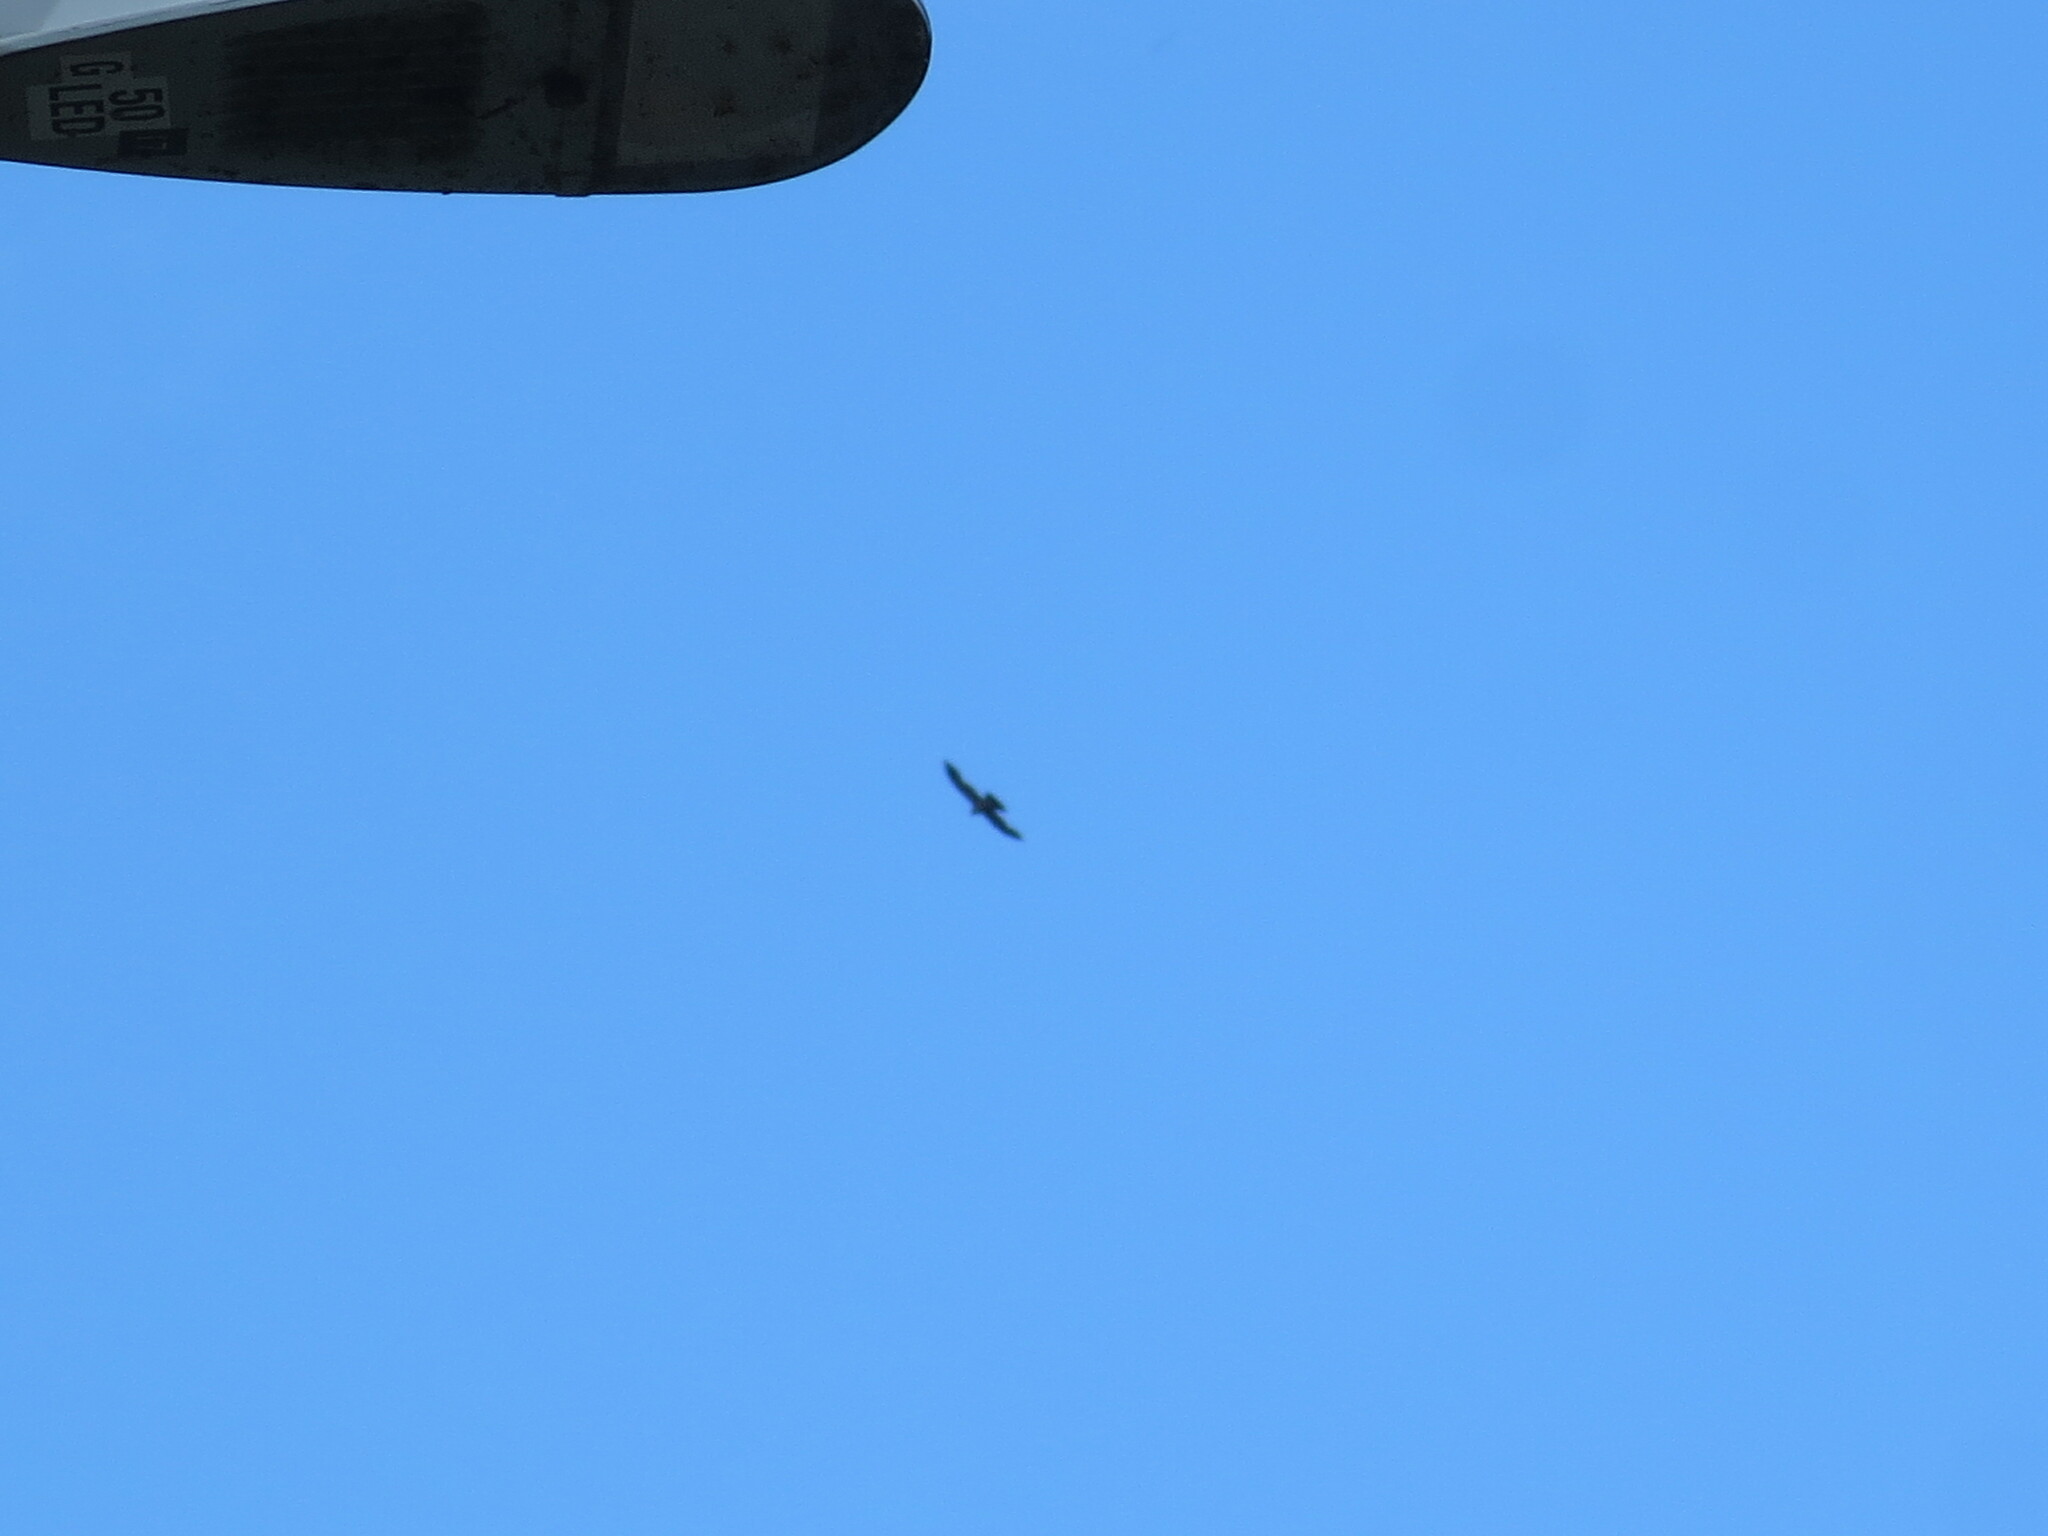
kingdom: Animalia
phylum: Chordata
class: Aves
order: Accipitriformes
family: Accipitridae
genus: Ictinia
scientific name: Ictinia mississippiensis
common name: Mississippi kite
